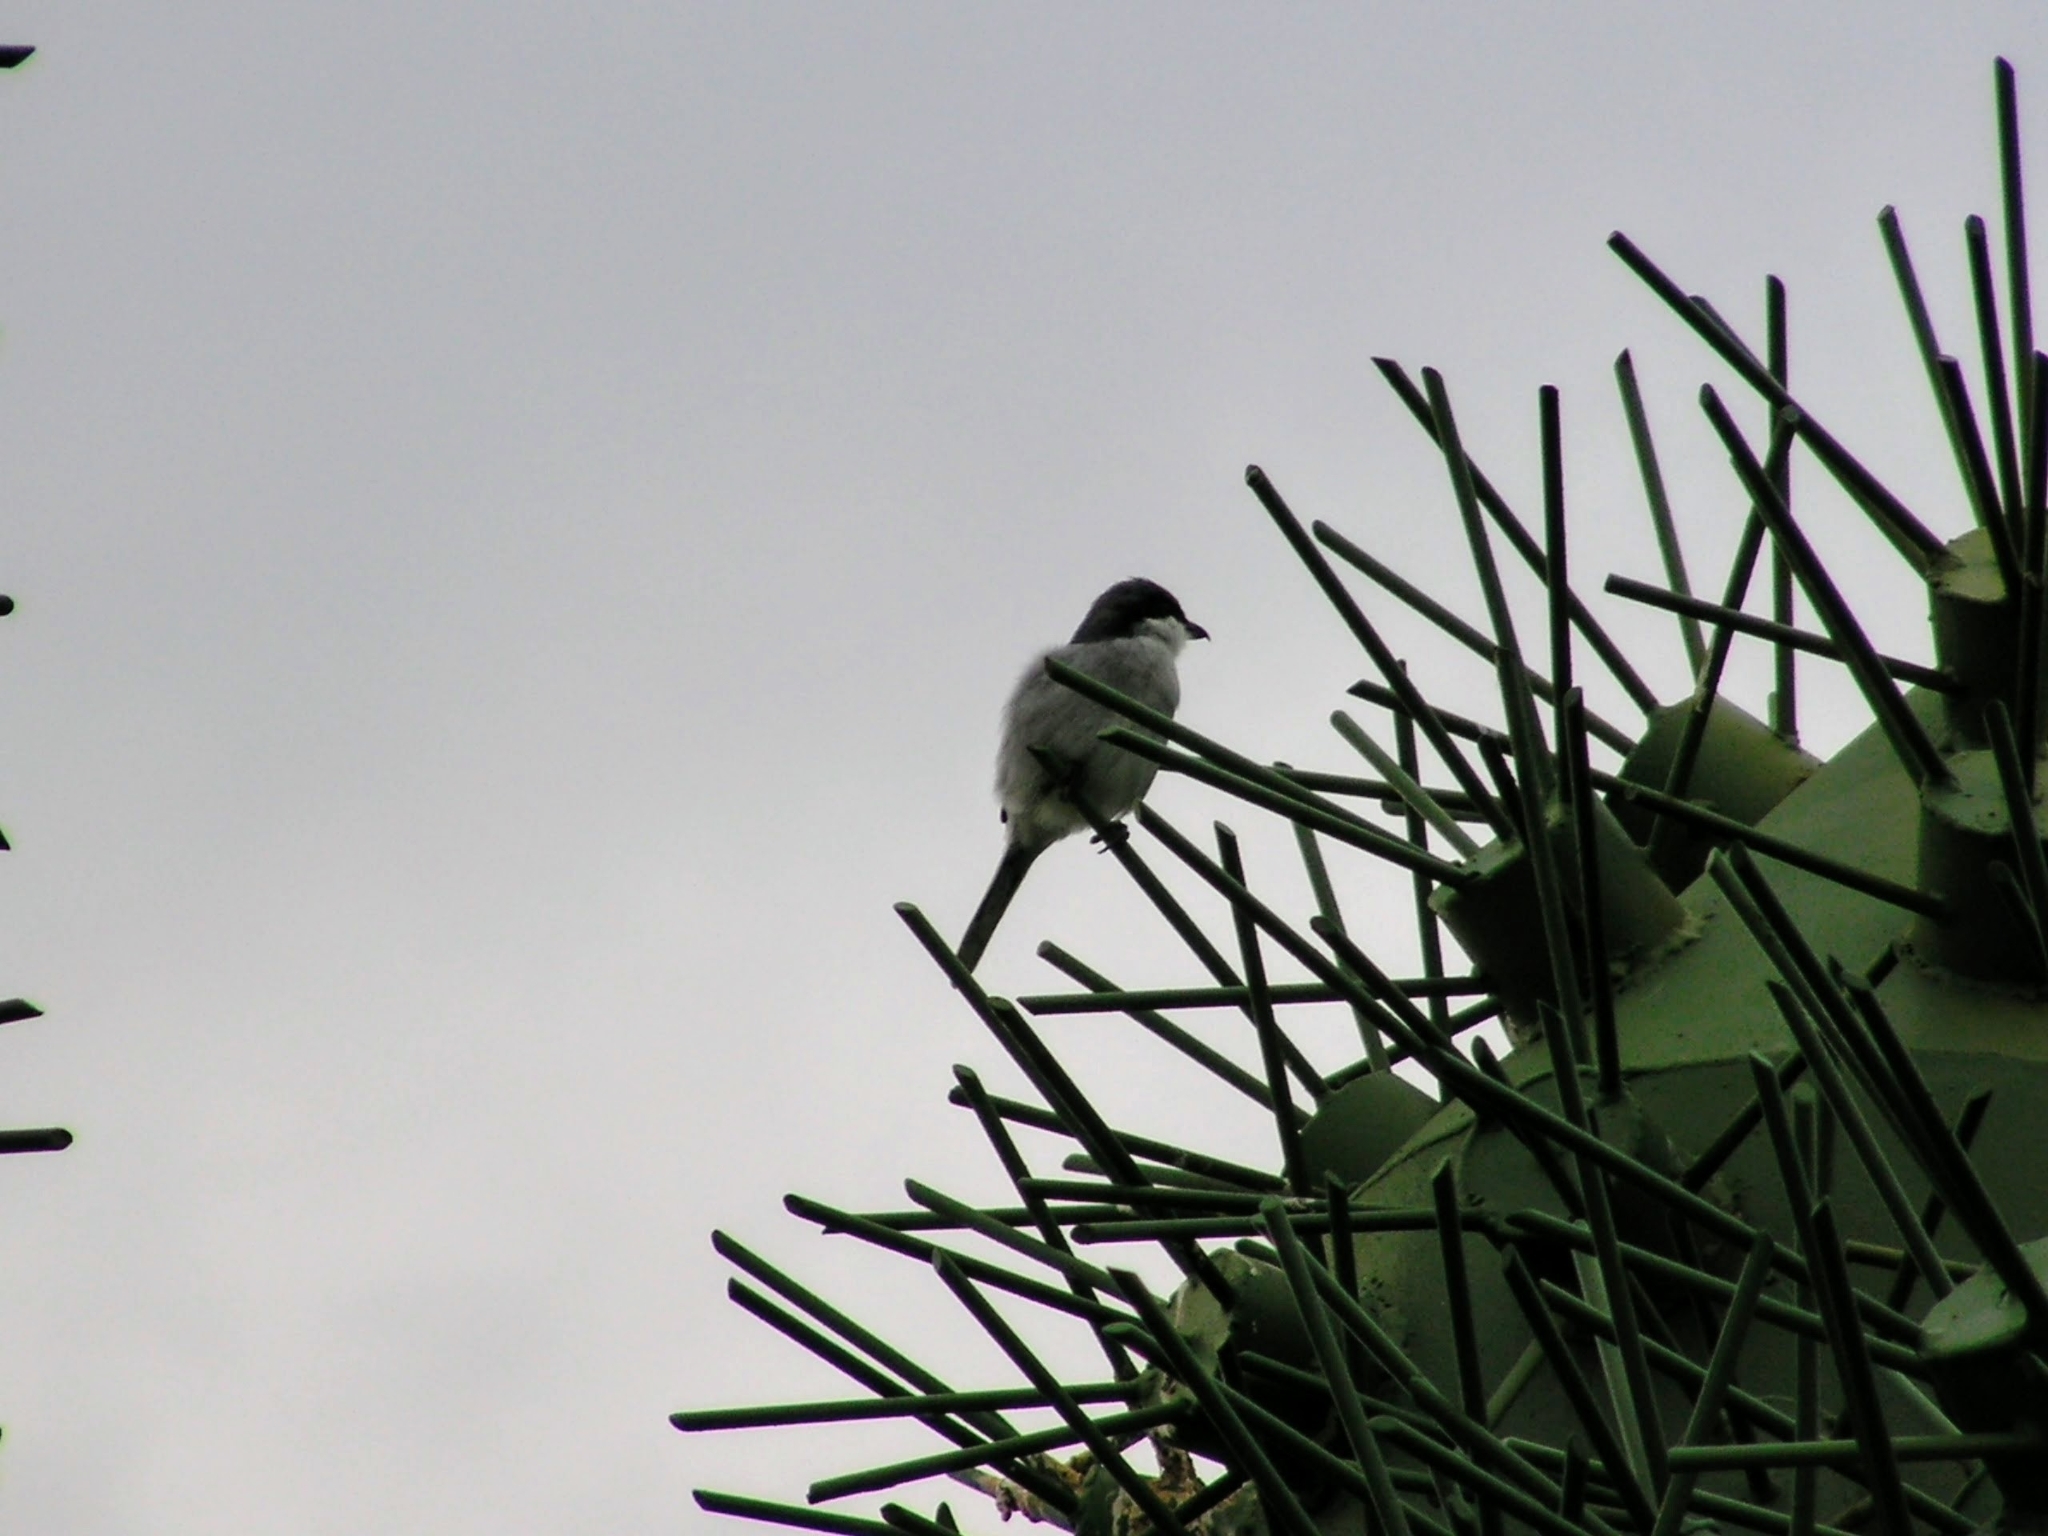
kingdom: Animalia
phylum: Chordata
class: Aves
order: Passeriformes
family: Laniidae
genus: Lanius
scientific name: Lanius excubitor
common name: Great grey shrike
